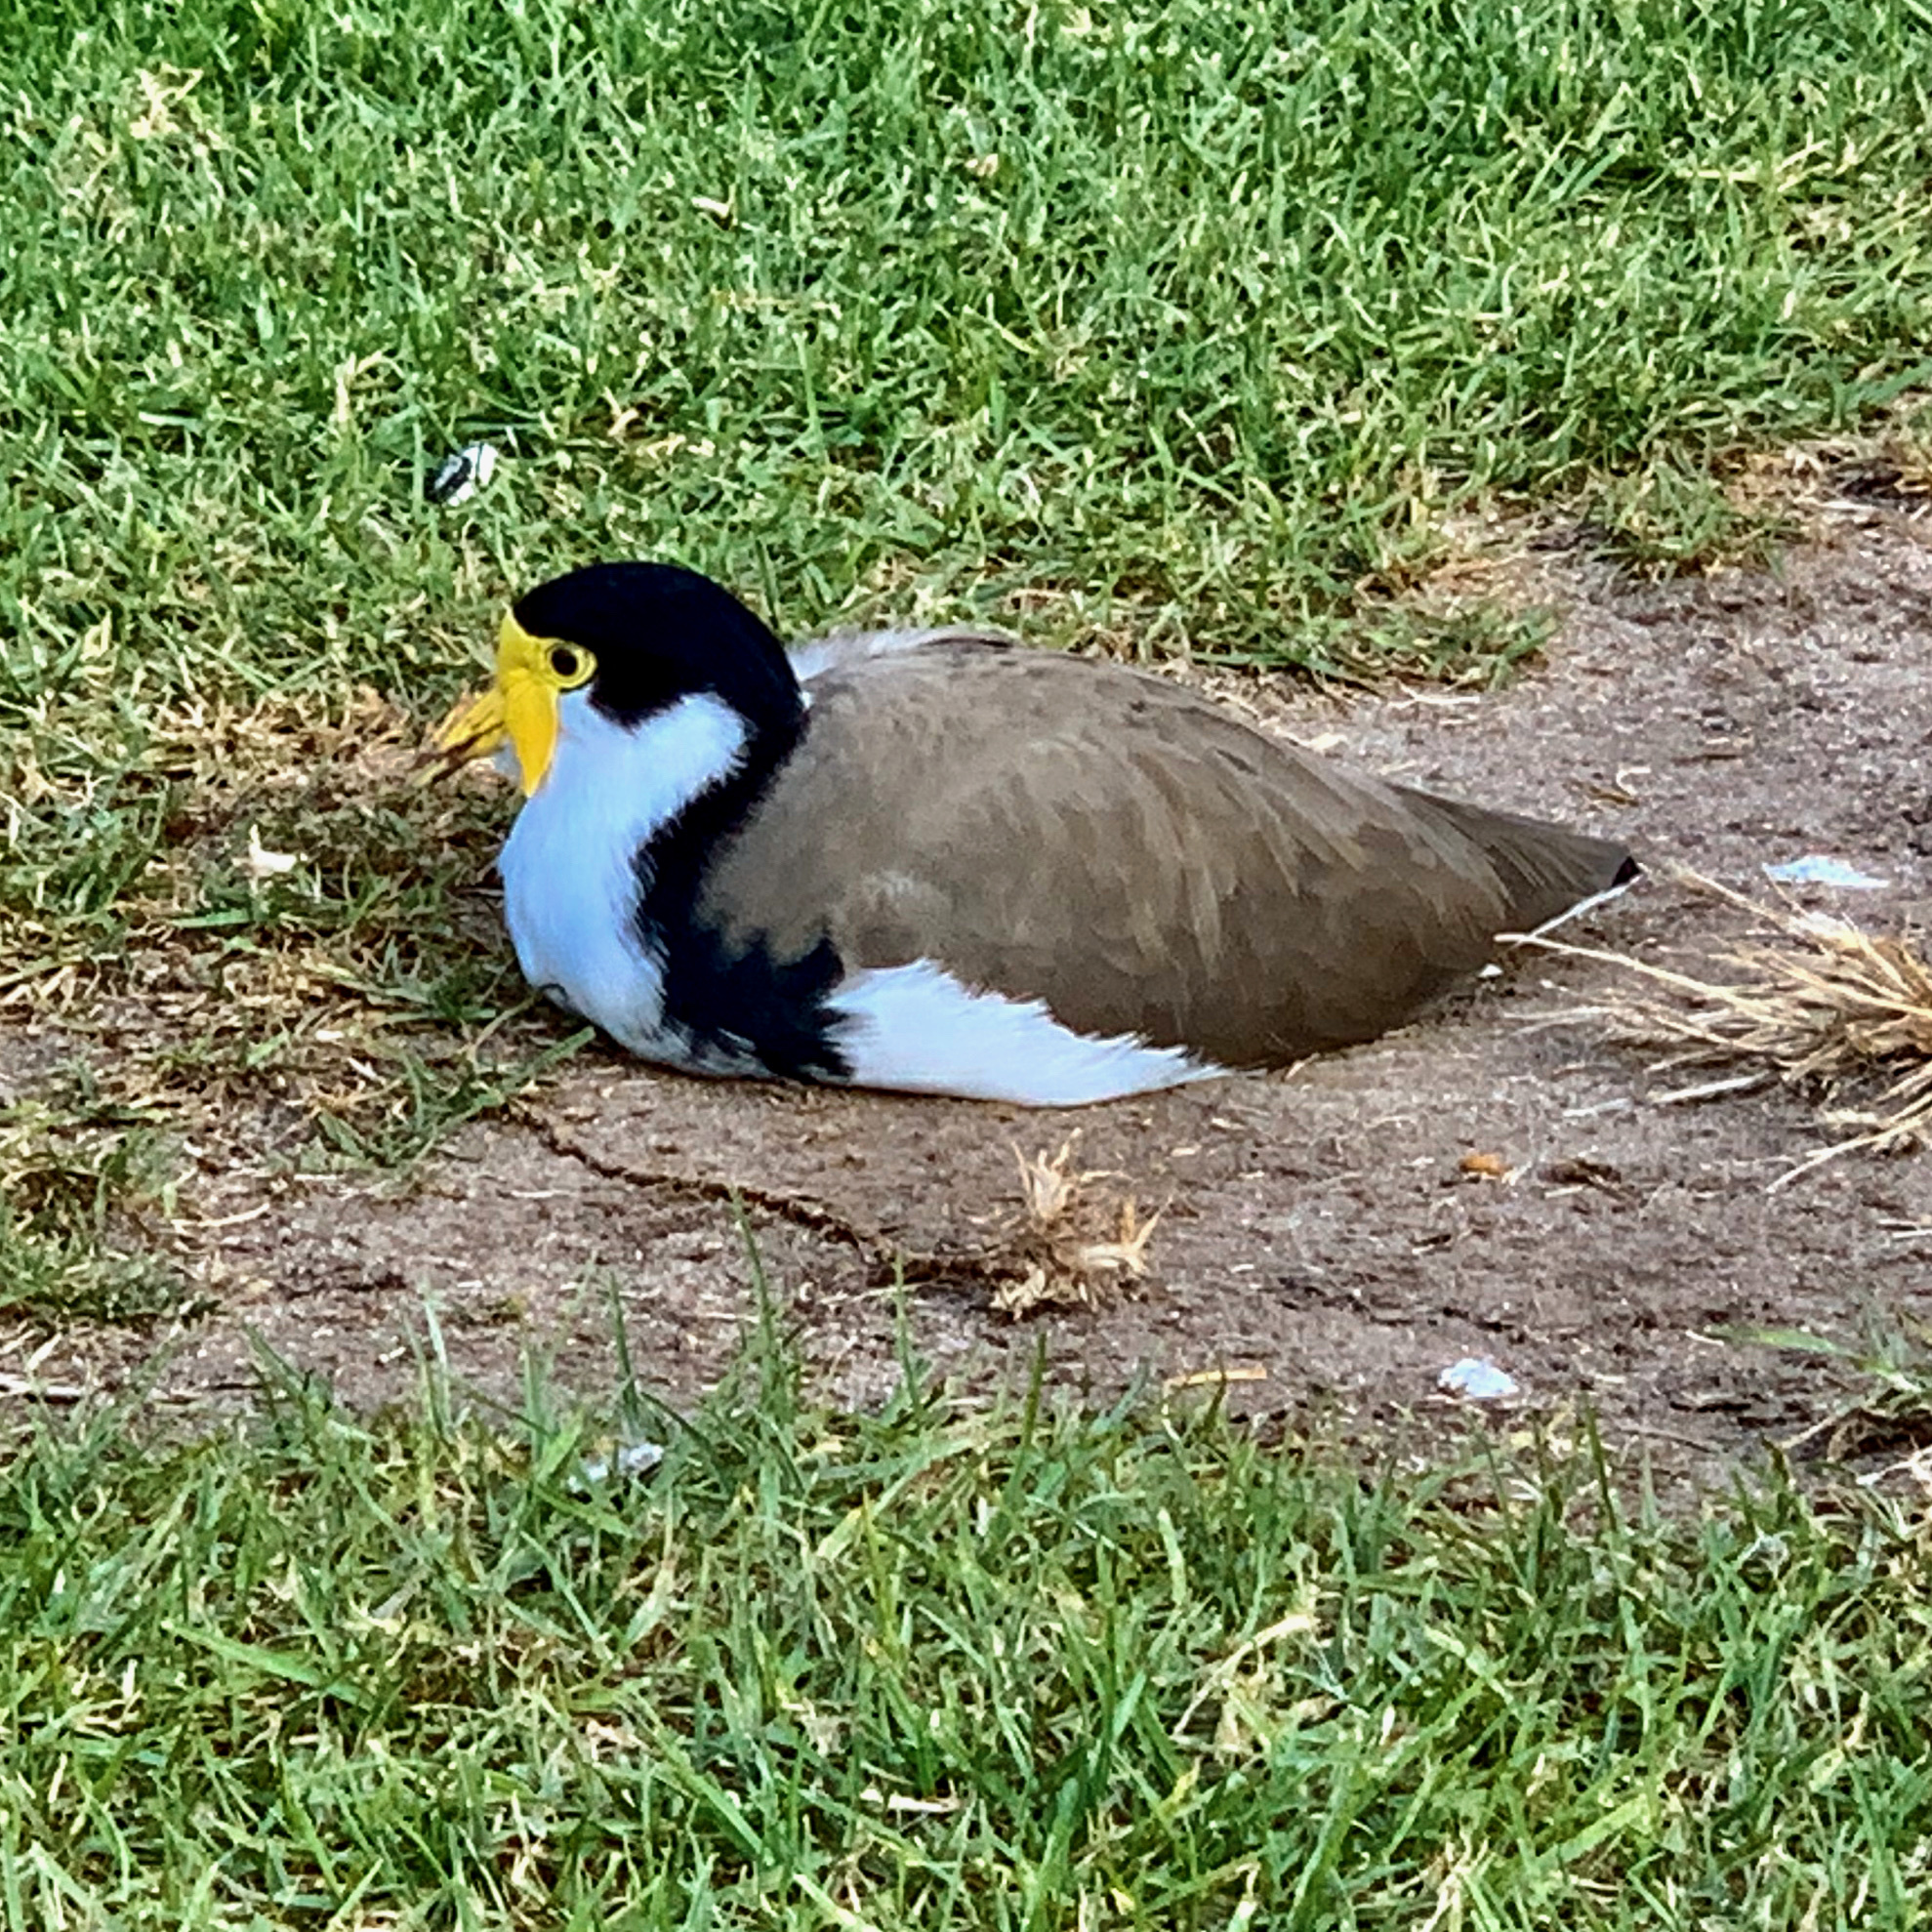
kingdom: Animalia
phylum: Chordata
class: Aves
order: Charadriiformes
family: Charadriidae
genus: Vanellus
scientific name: Vanellus miles
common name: Masked lapwing
